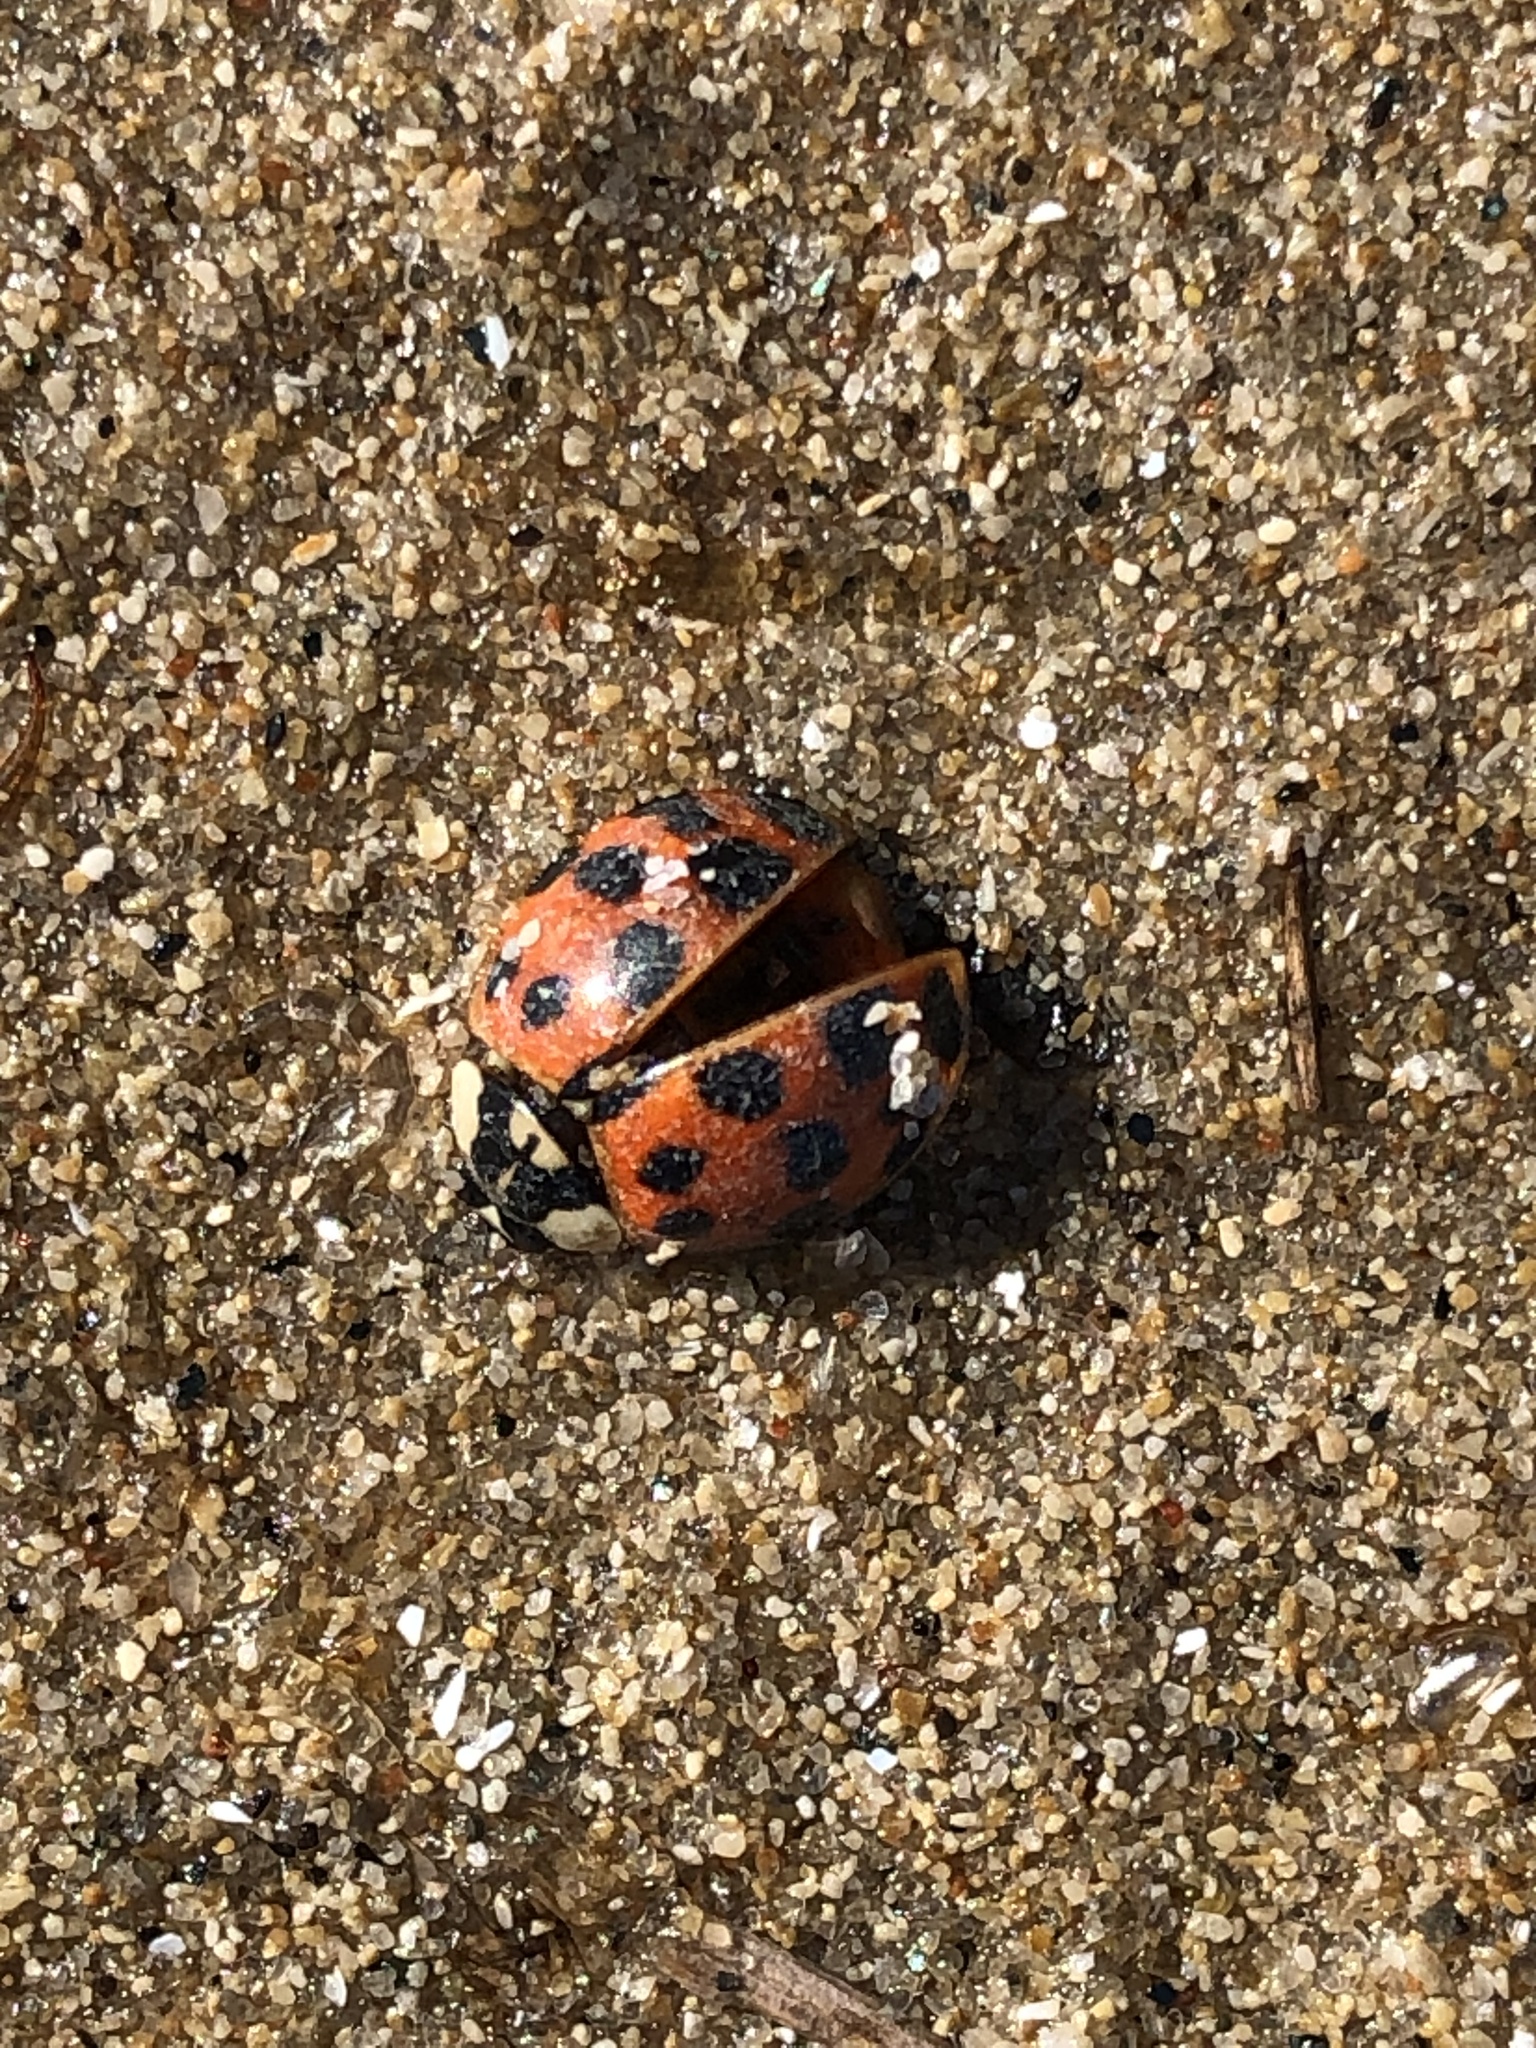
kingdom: Animalia
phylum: Arthropoda
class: Insecta
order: Coleoptera
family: Coccinellidae
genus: Harmonia
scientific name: Harmonia axyridis
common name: Harlequin ladybird
